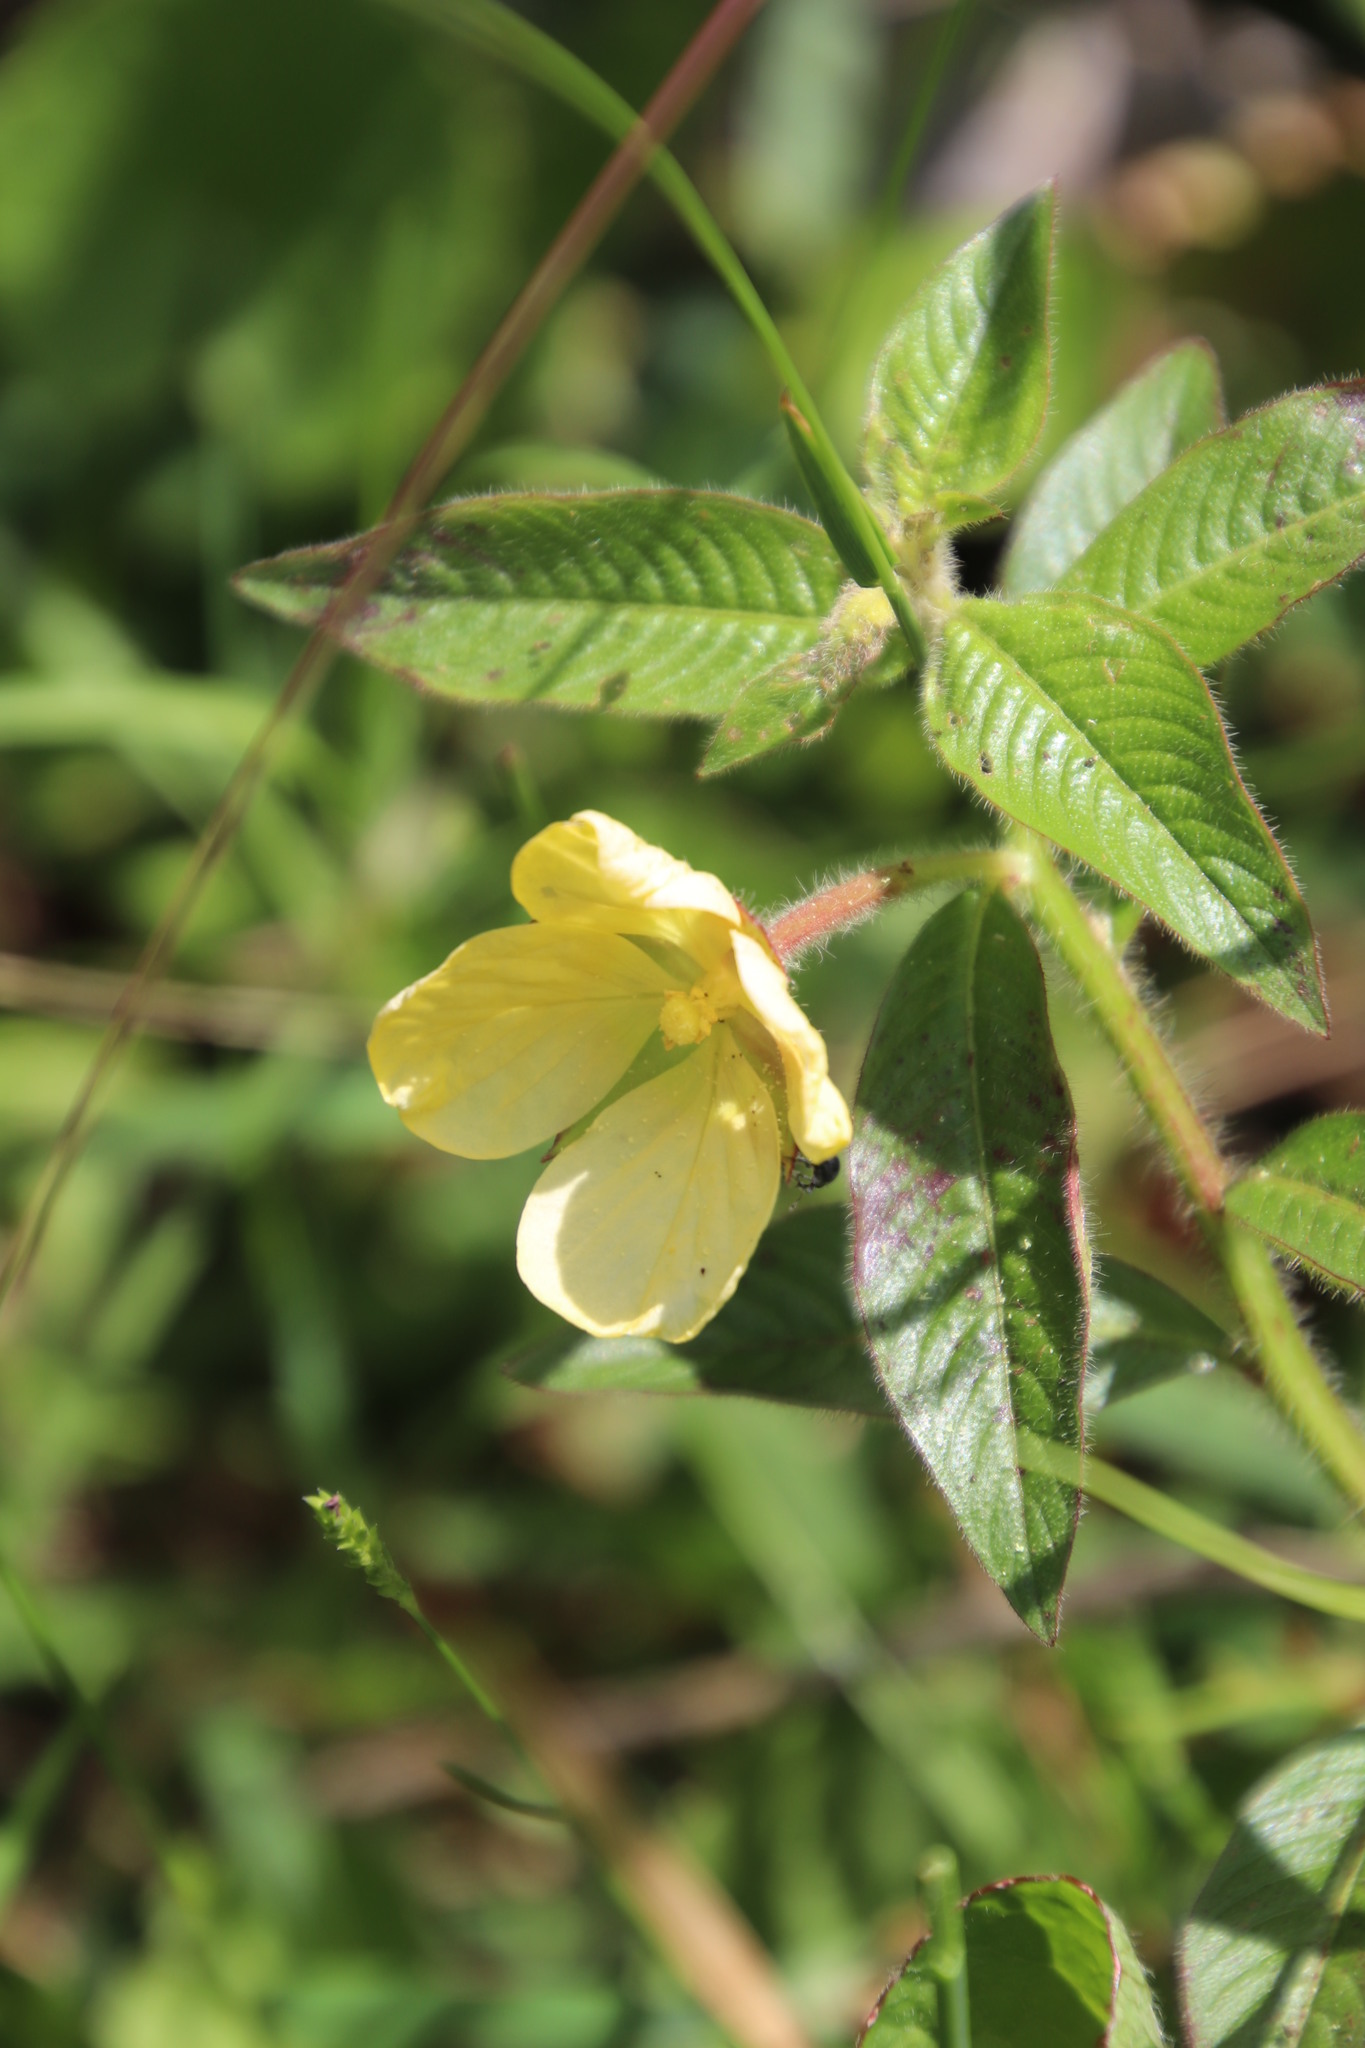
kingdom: Plantae
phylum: Tracheophyta
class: Magnoliopsida
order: Myrtales
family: Onagraceae
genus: Ludwigia
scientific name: Ludwigia octovalvis
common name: Water-primrose
